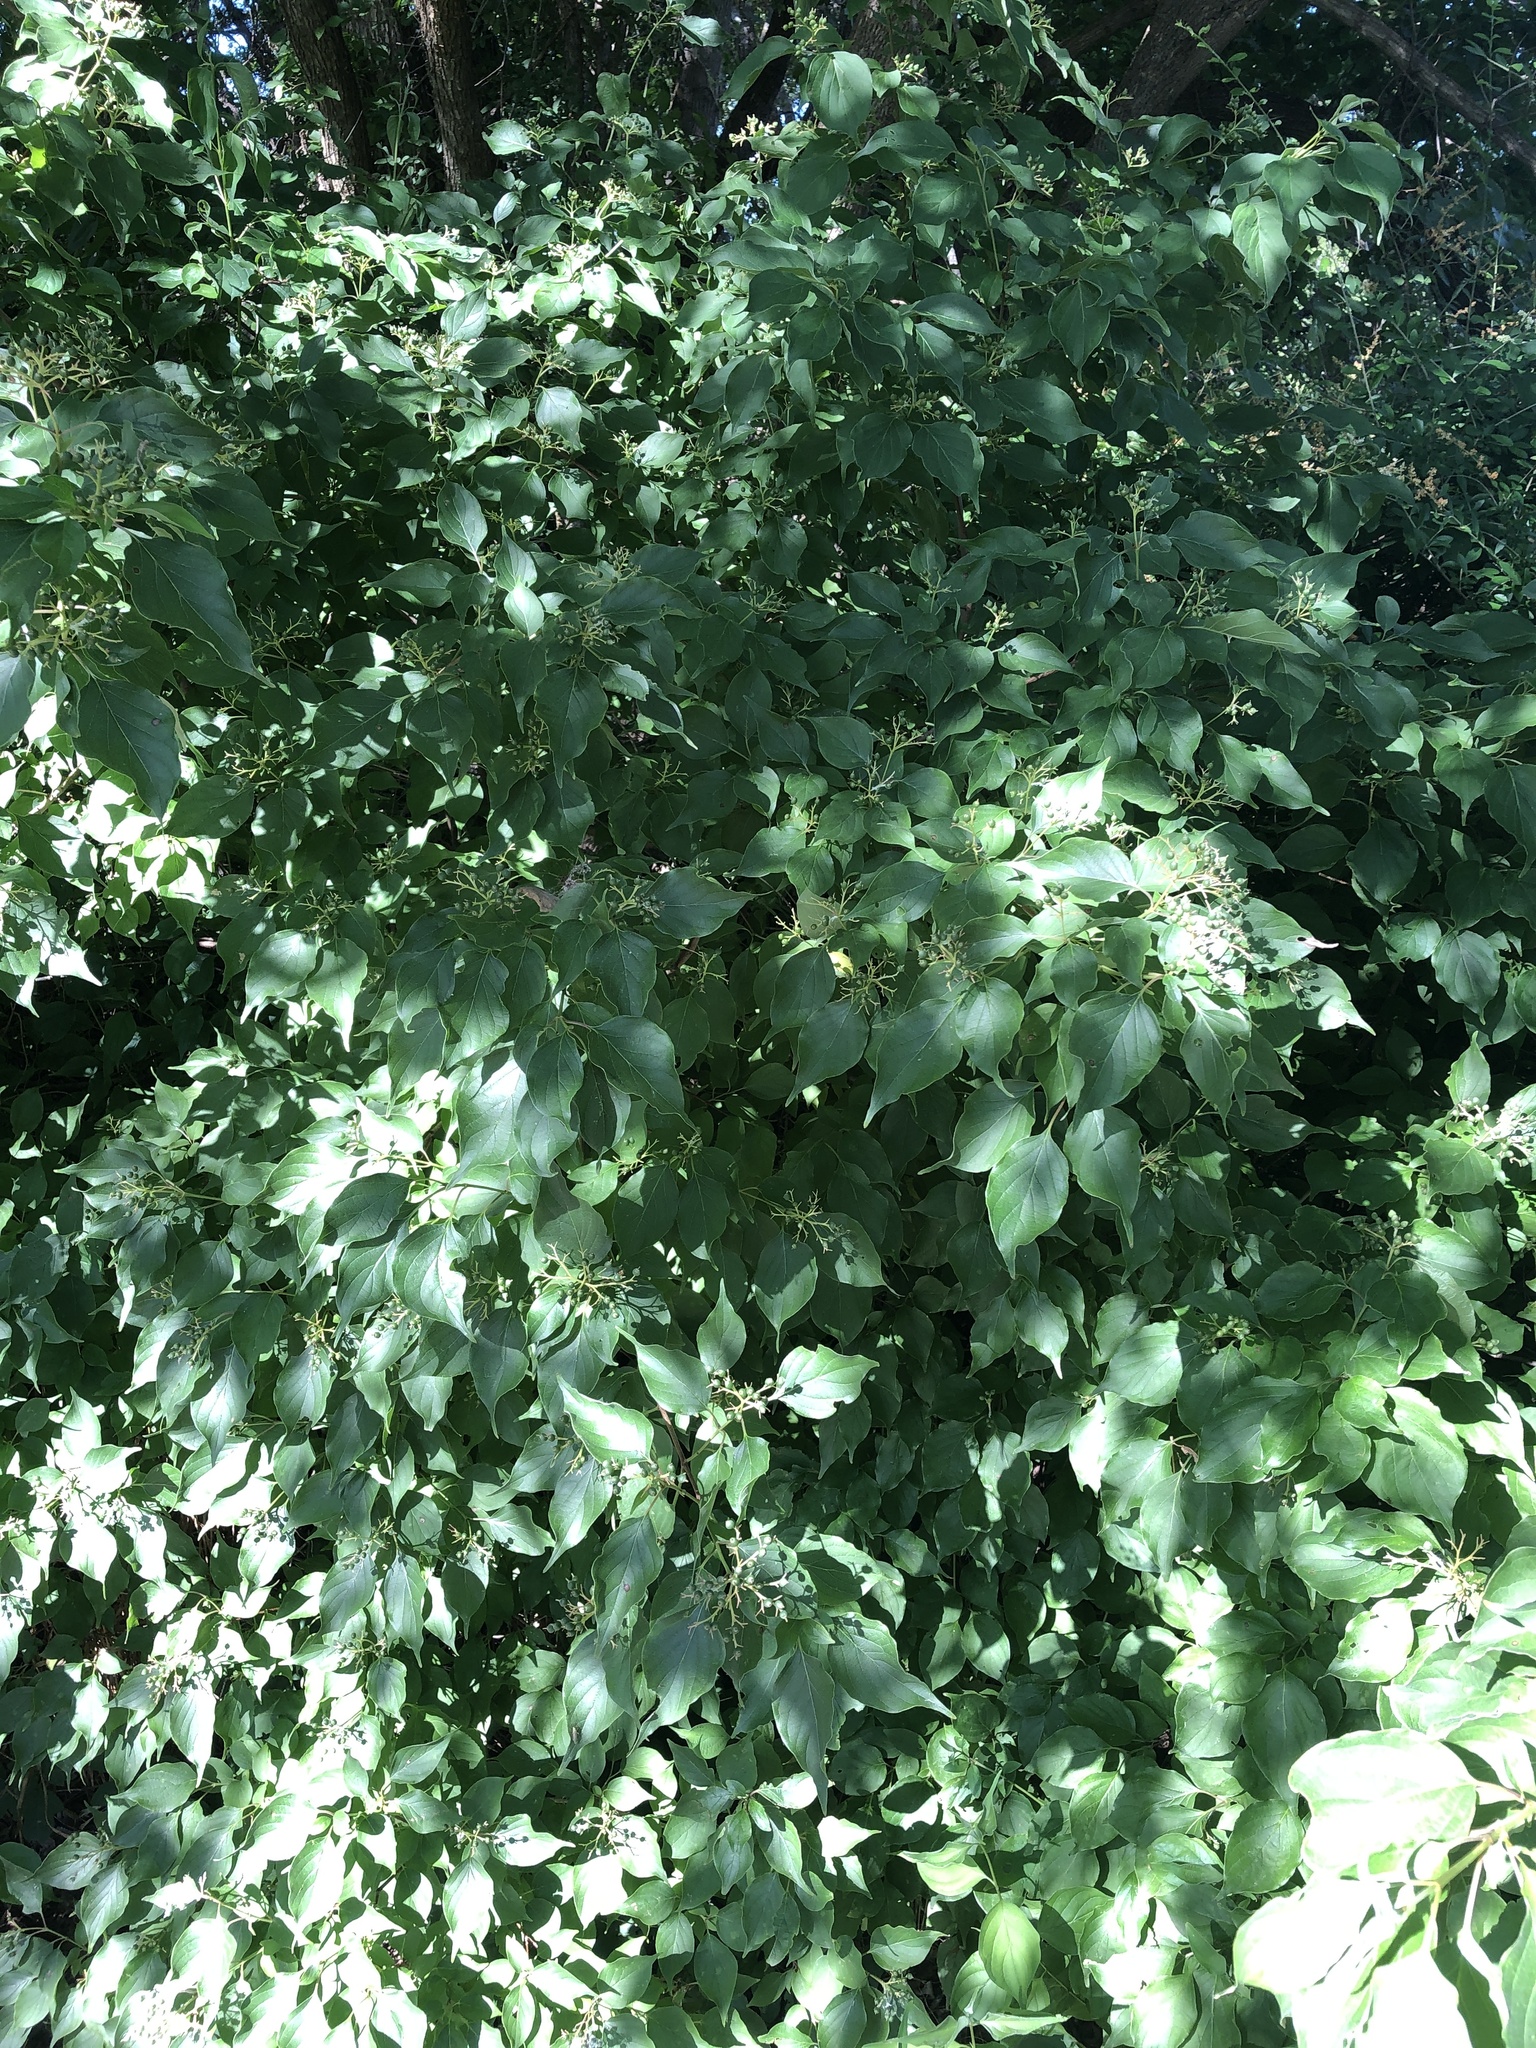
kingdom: Plantae
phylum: Tracheophyta
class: Magnoliopsida
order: Cornales
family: Cornaceae
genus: Cornus
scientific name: Cornus drummondii
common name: Rough-leaf dogwood
